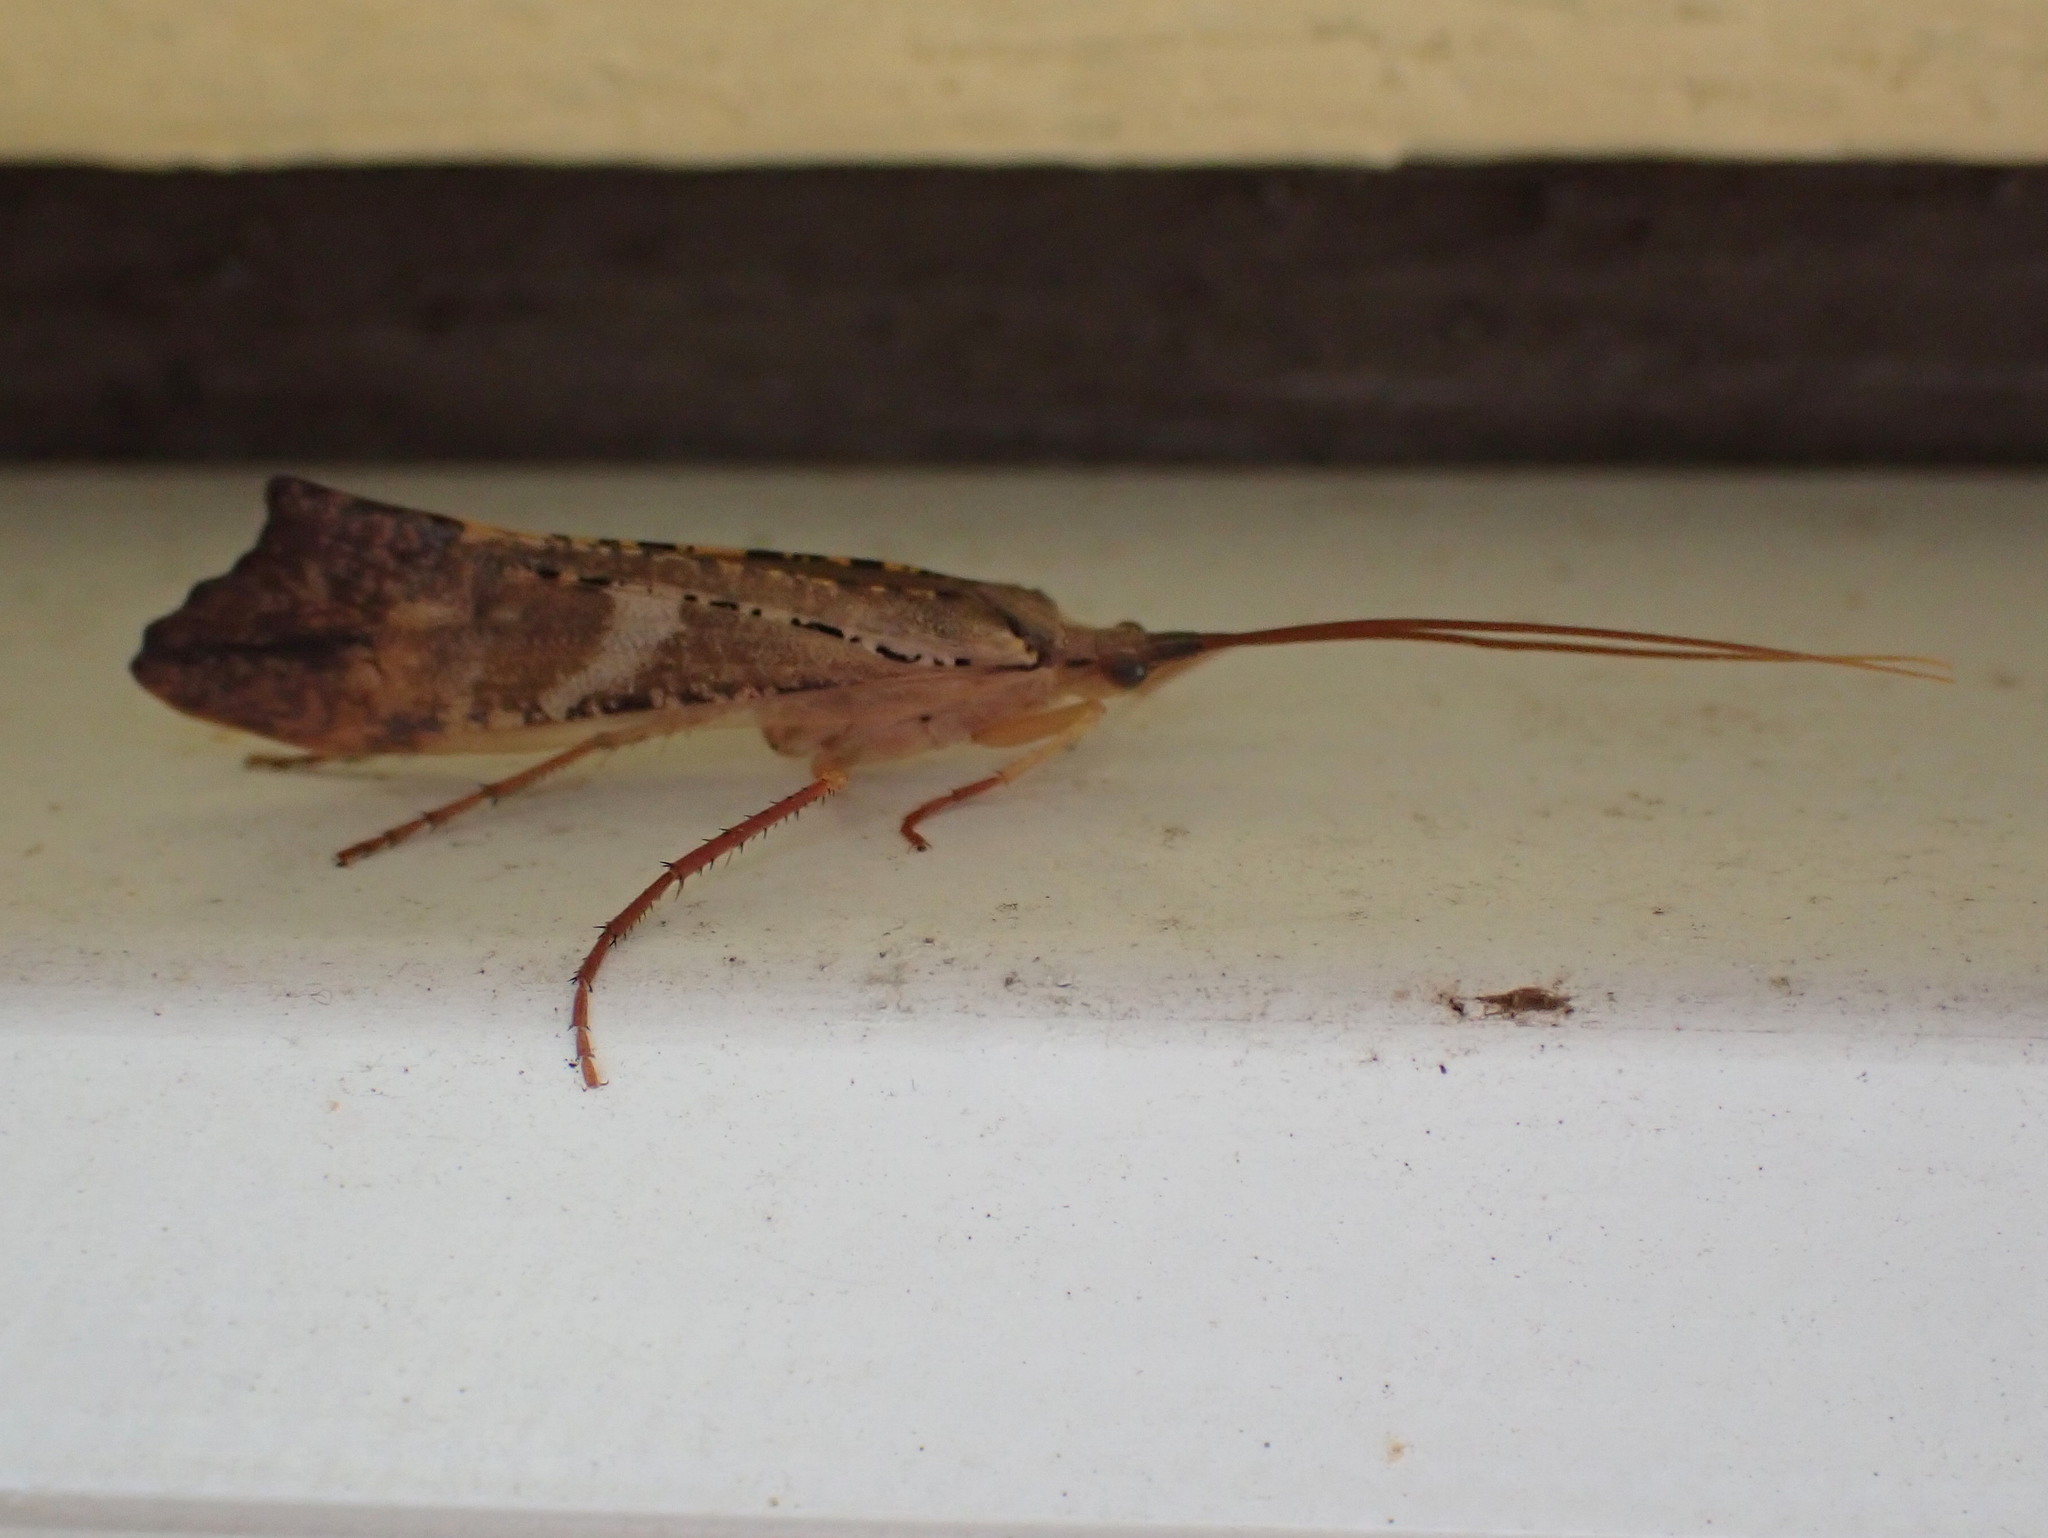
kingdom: Animalia
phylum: Arthropoda
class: Insecta
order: Trichoptera
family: Limnephilidae
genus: Nemotaulius
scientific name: Nemotaulius hostilis
